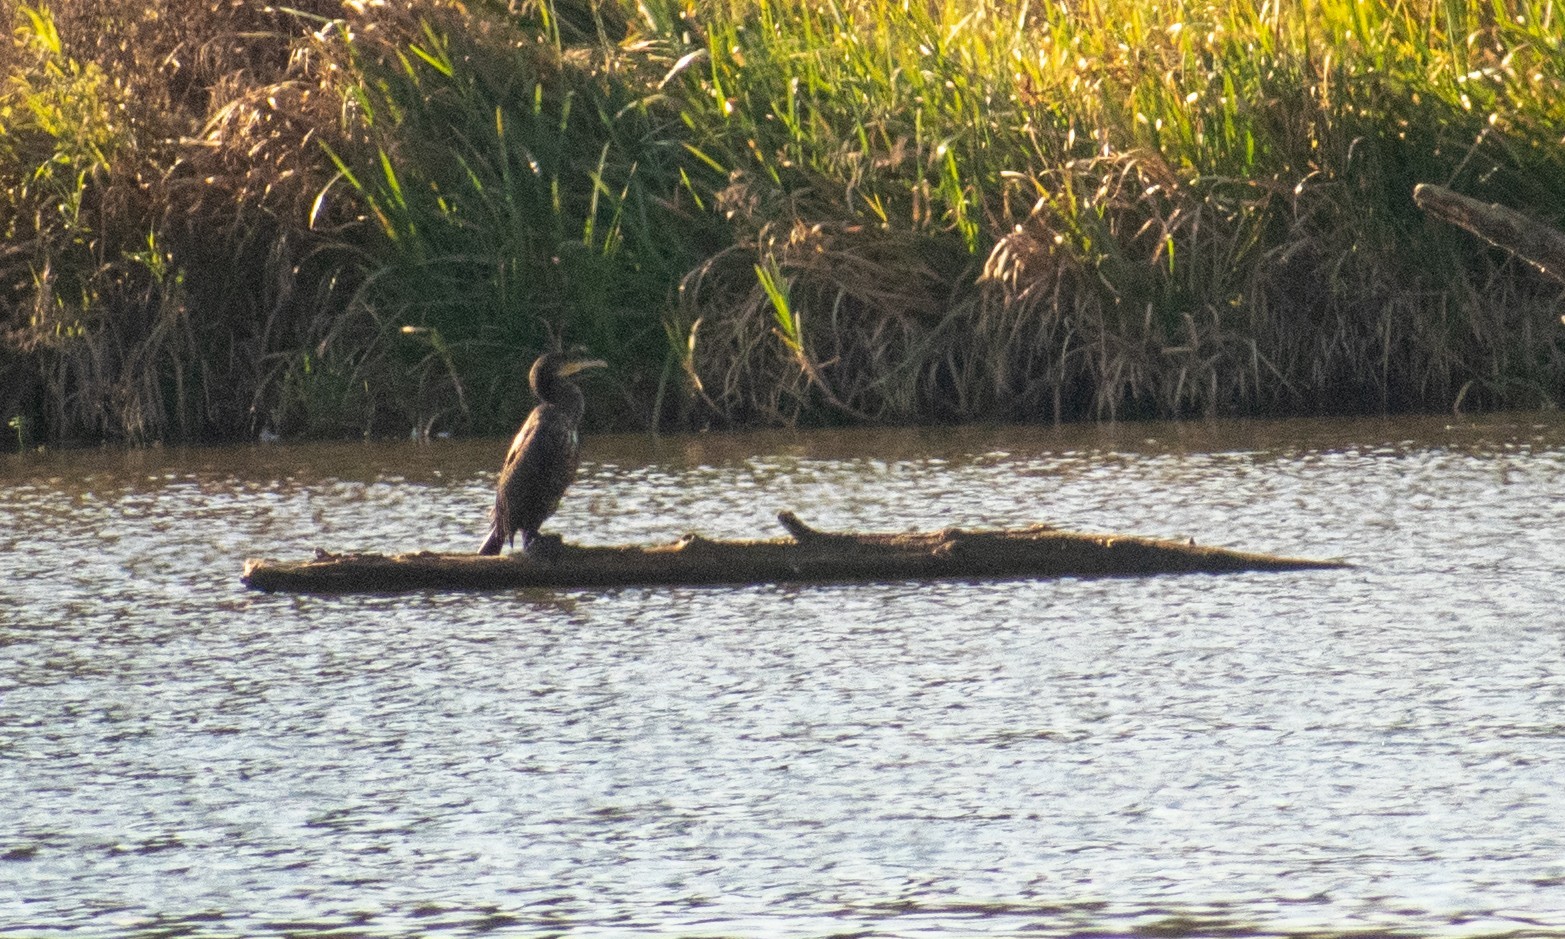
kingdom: Animalia
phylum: Chordata
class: Aves
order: Suliformes
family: Phalacrocoracidae
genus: Phalacrocorax
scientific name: Phalacrocorax carbo
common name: Great cormorant
